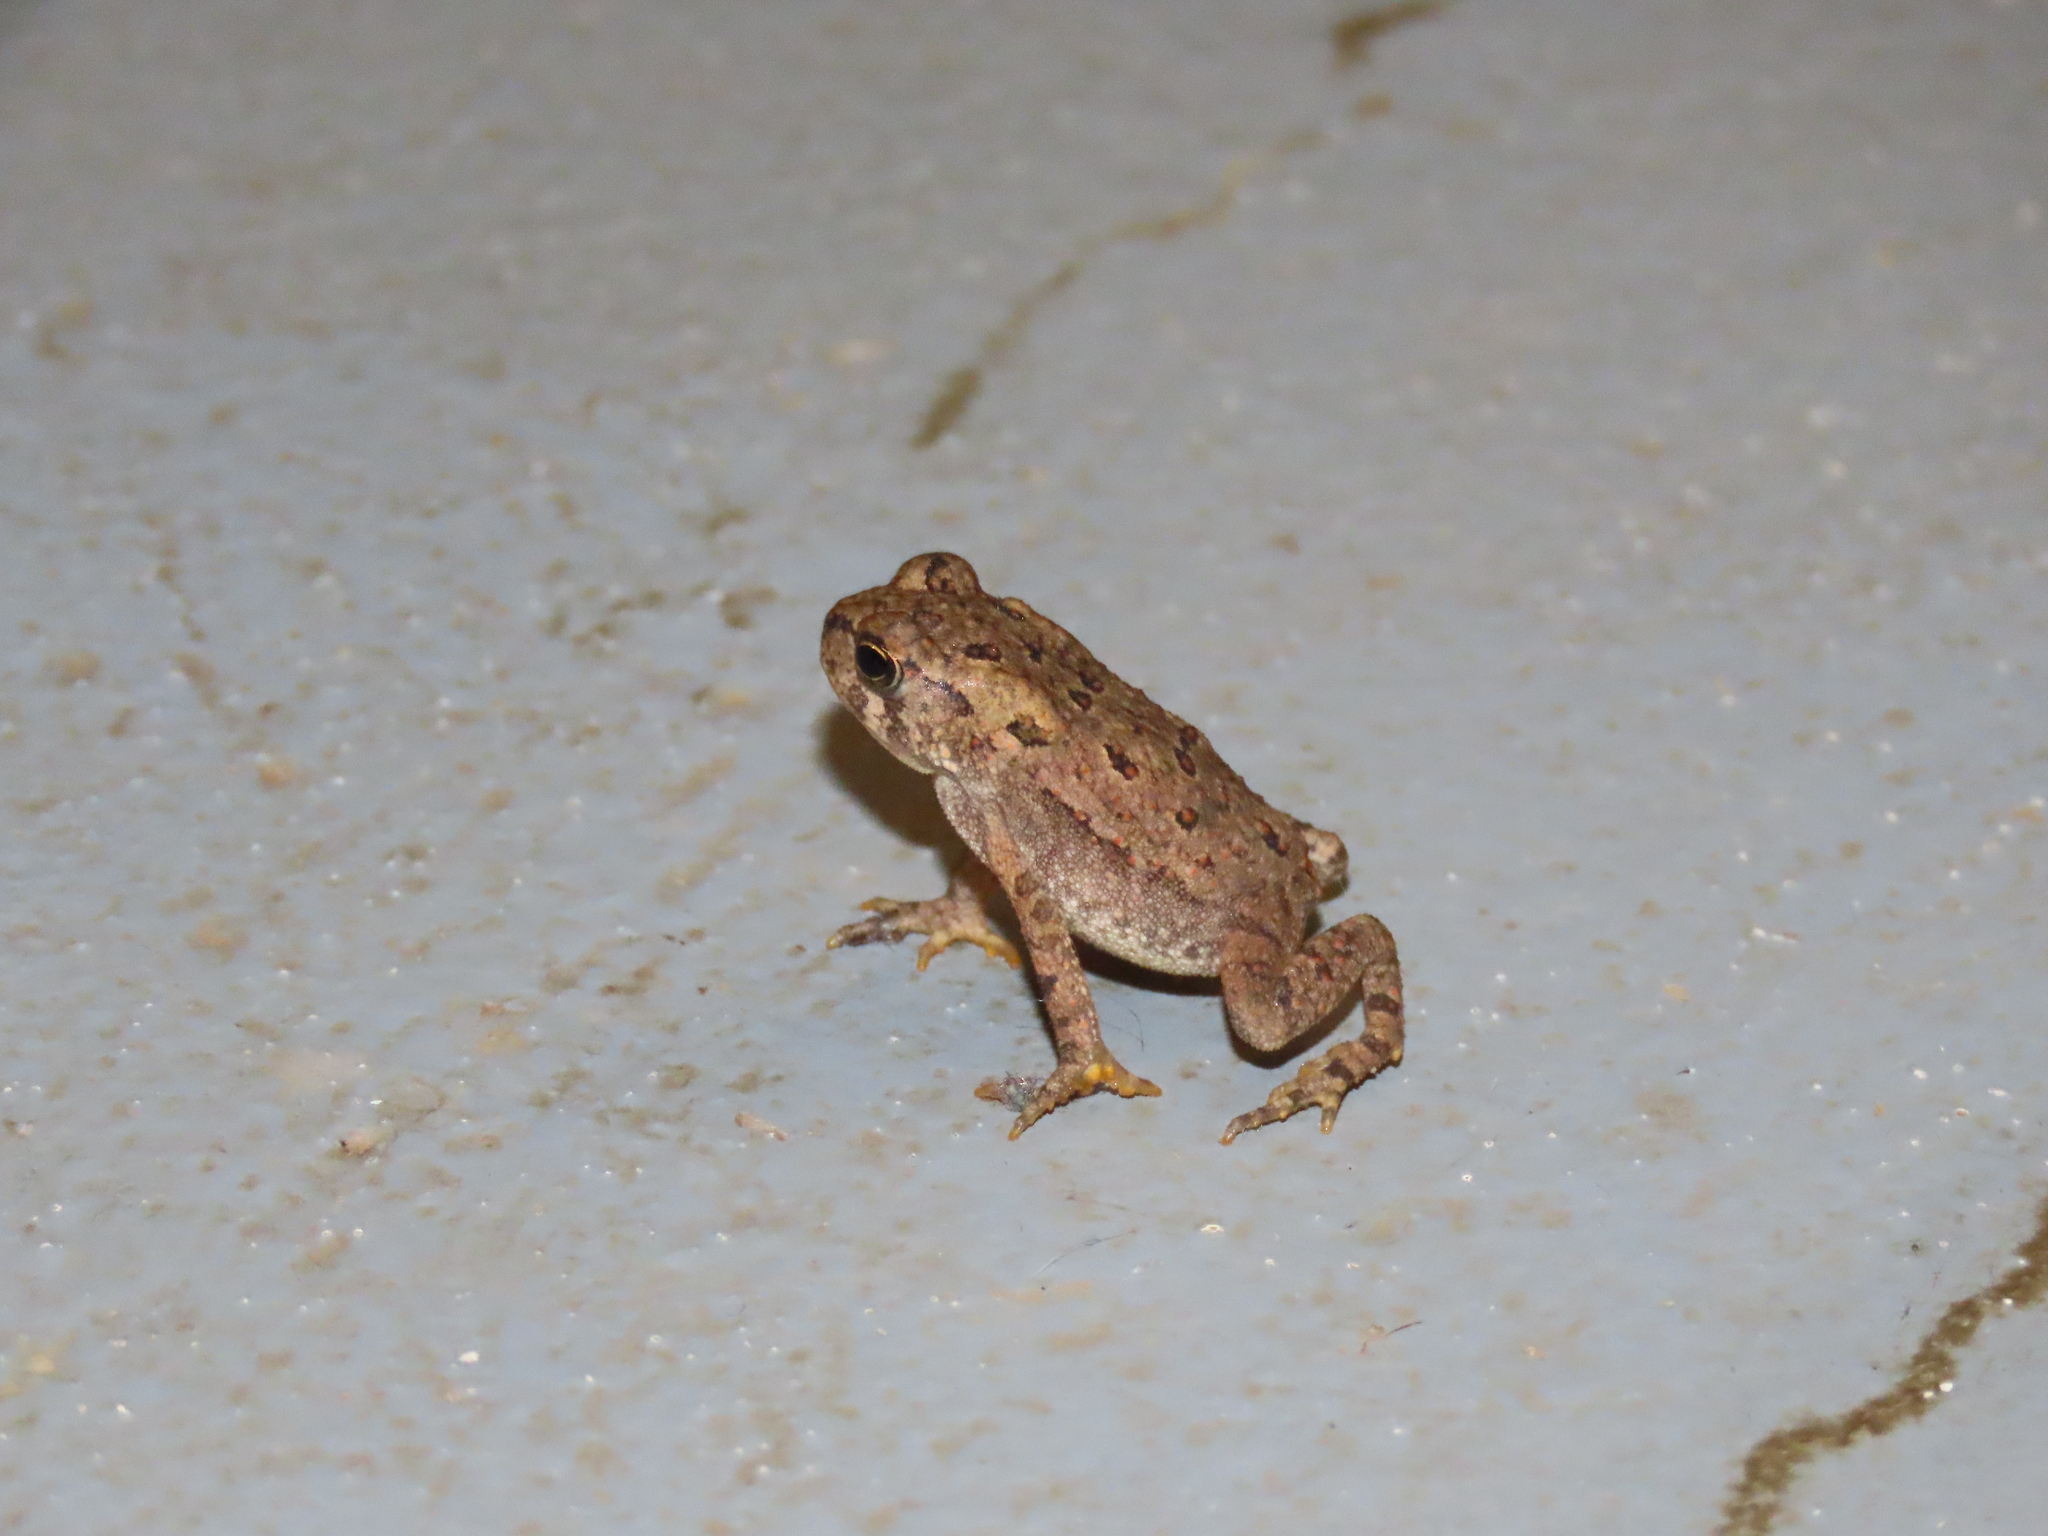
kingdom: Animalia
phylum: Chordata
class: Amphibia
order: Anura
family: Bufonidae
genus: Anaxyrus
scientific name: Anaxyrus americanus
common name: American toad
